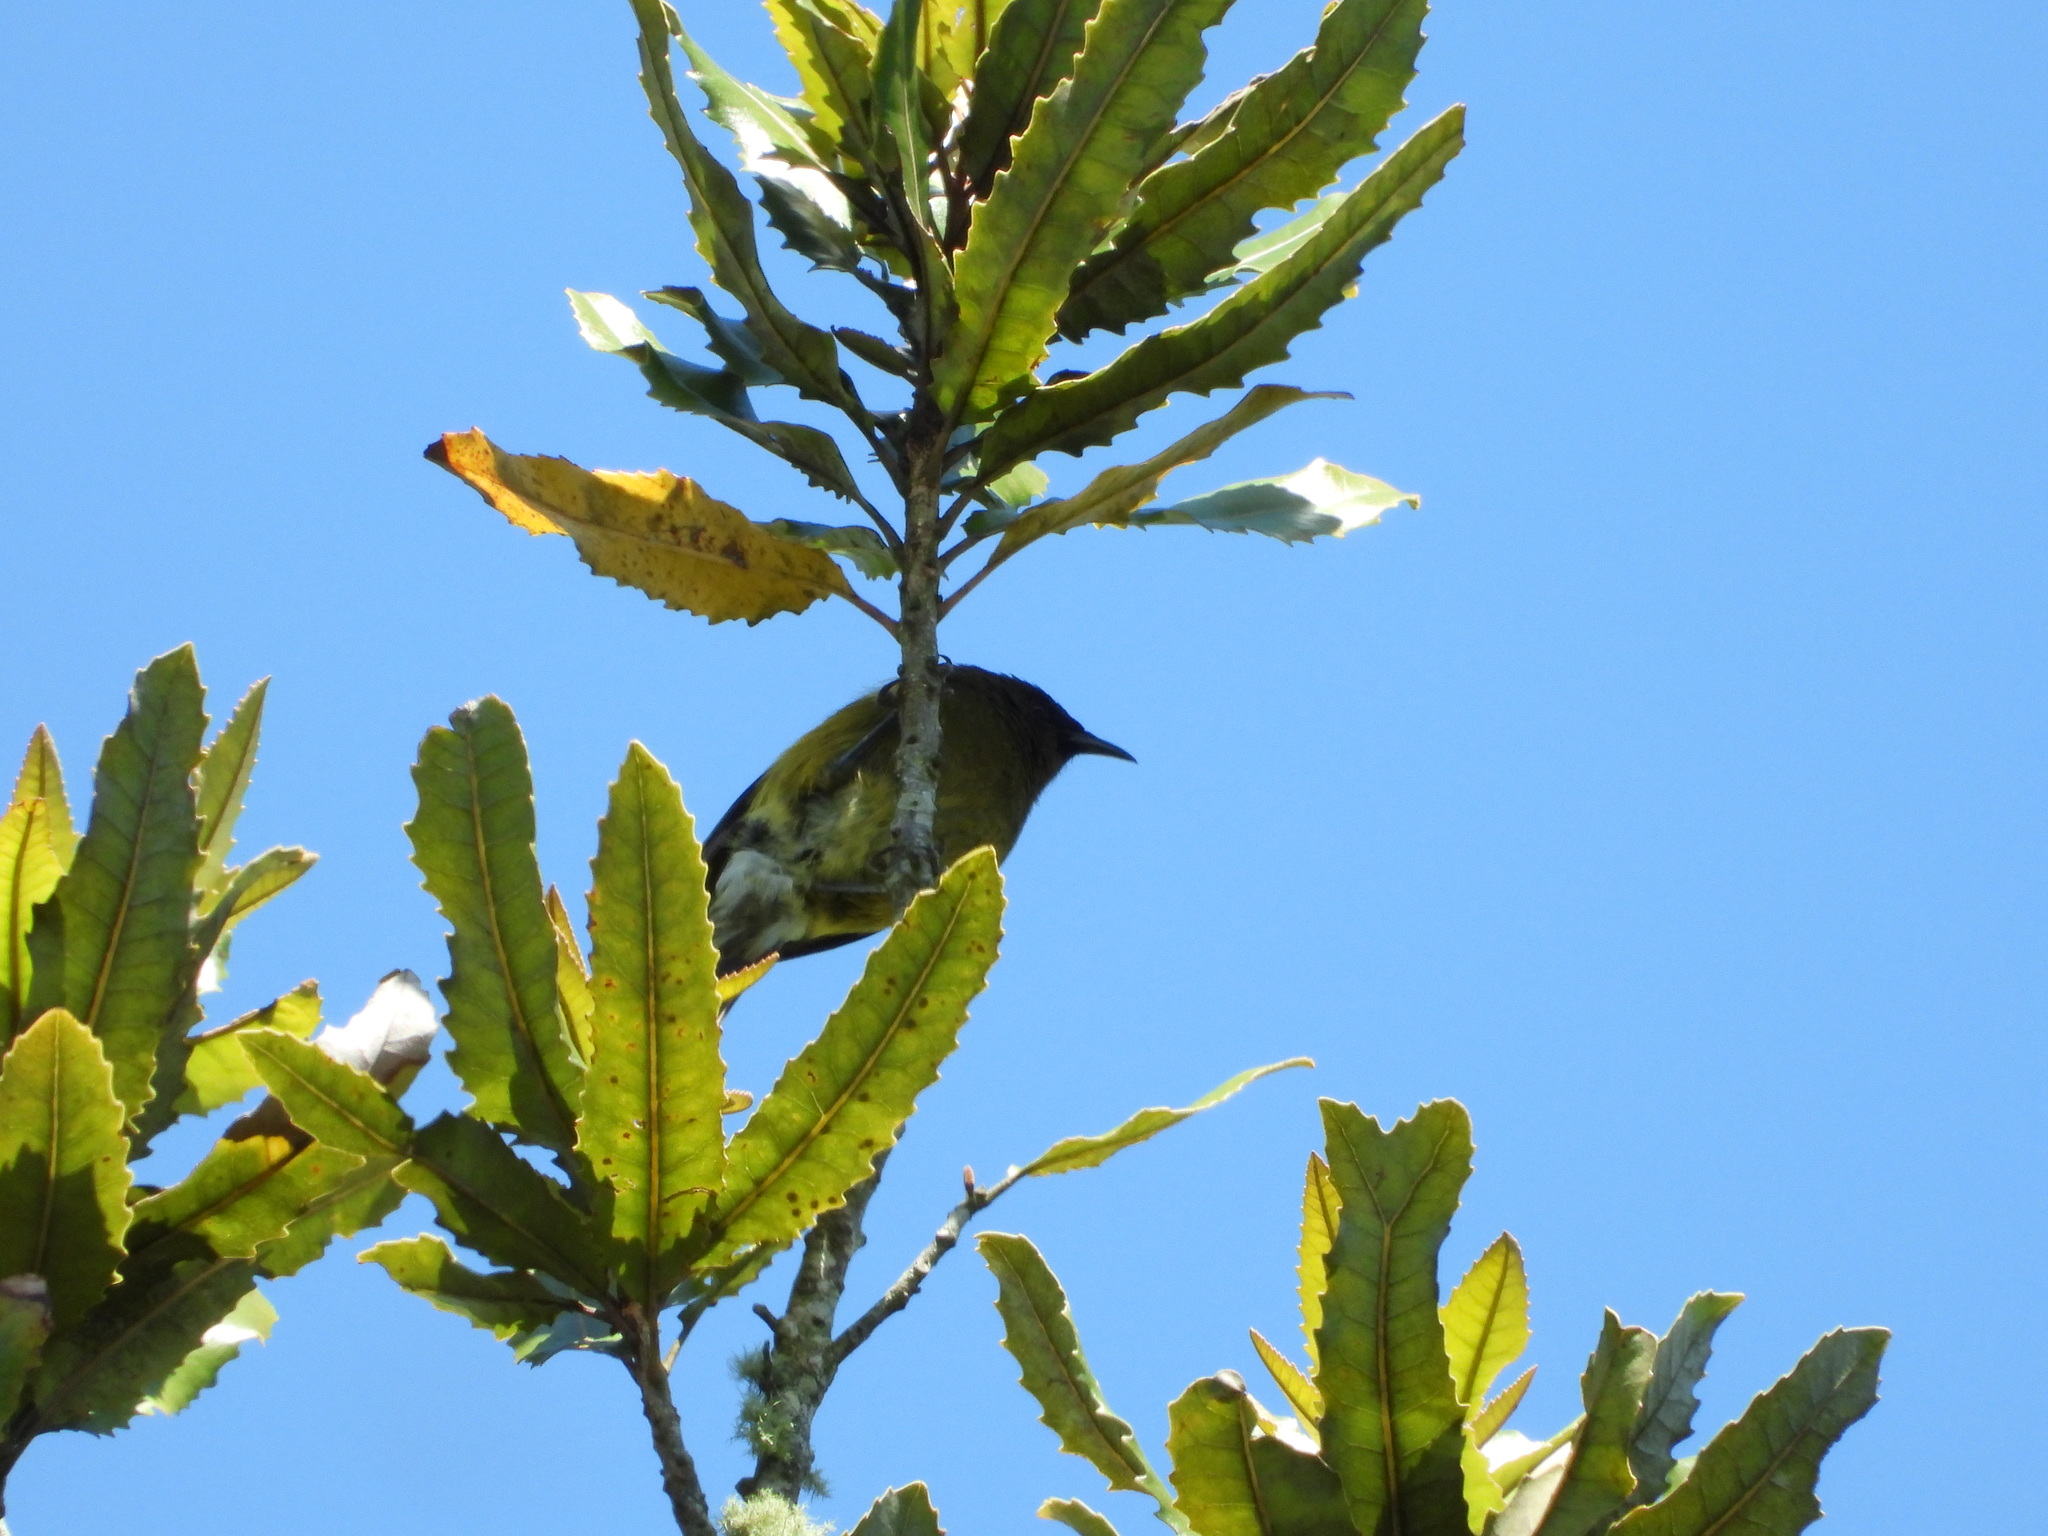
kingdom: Animalia
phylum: Chordata
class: Aves
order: Passeriformes
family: Meliphagidae
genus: Anthornis
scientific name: Anthornis melanura
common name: New zealand bellbird
